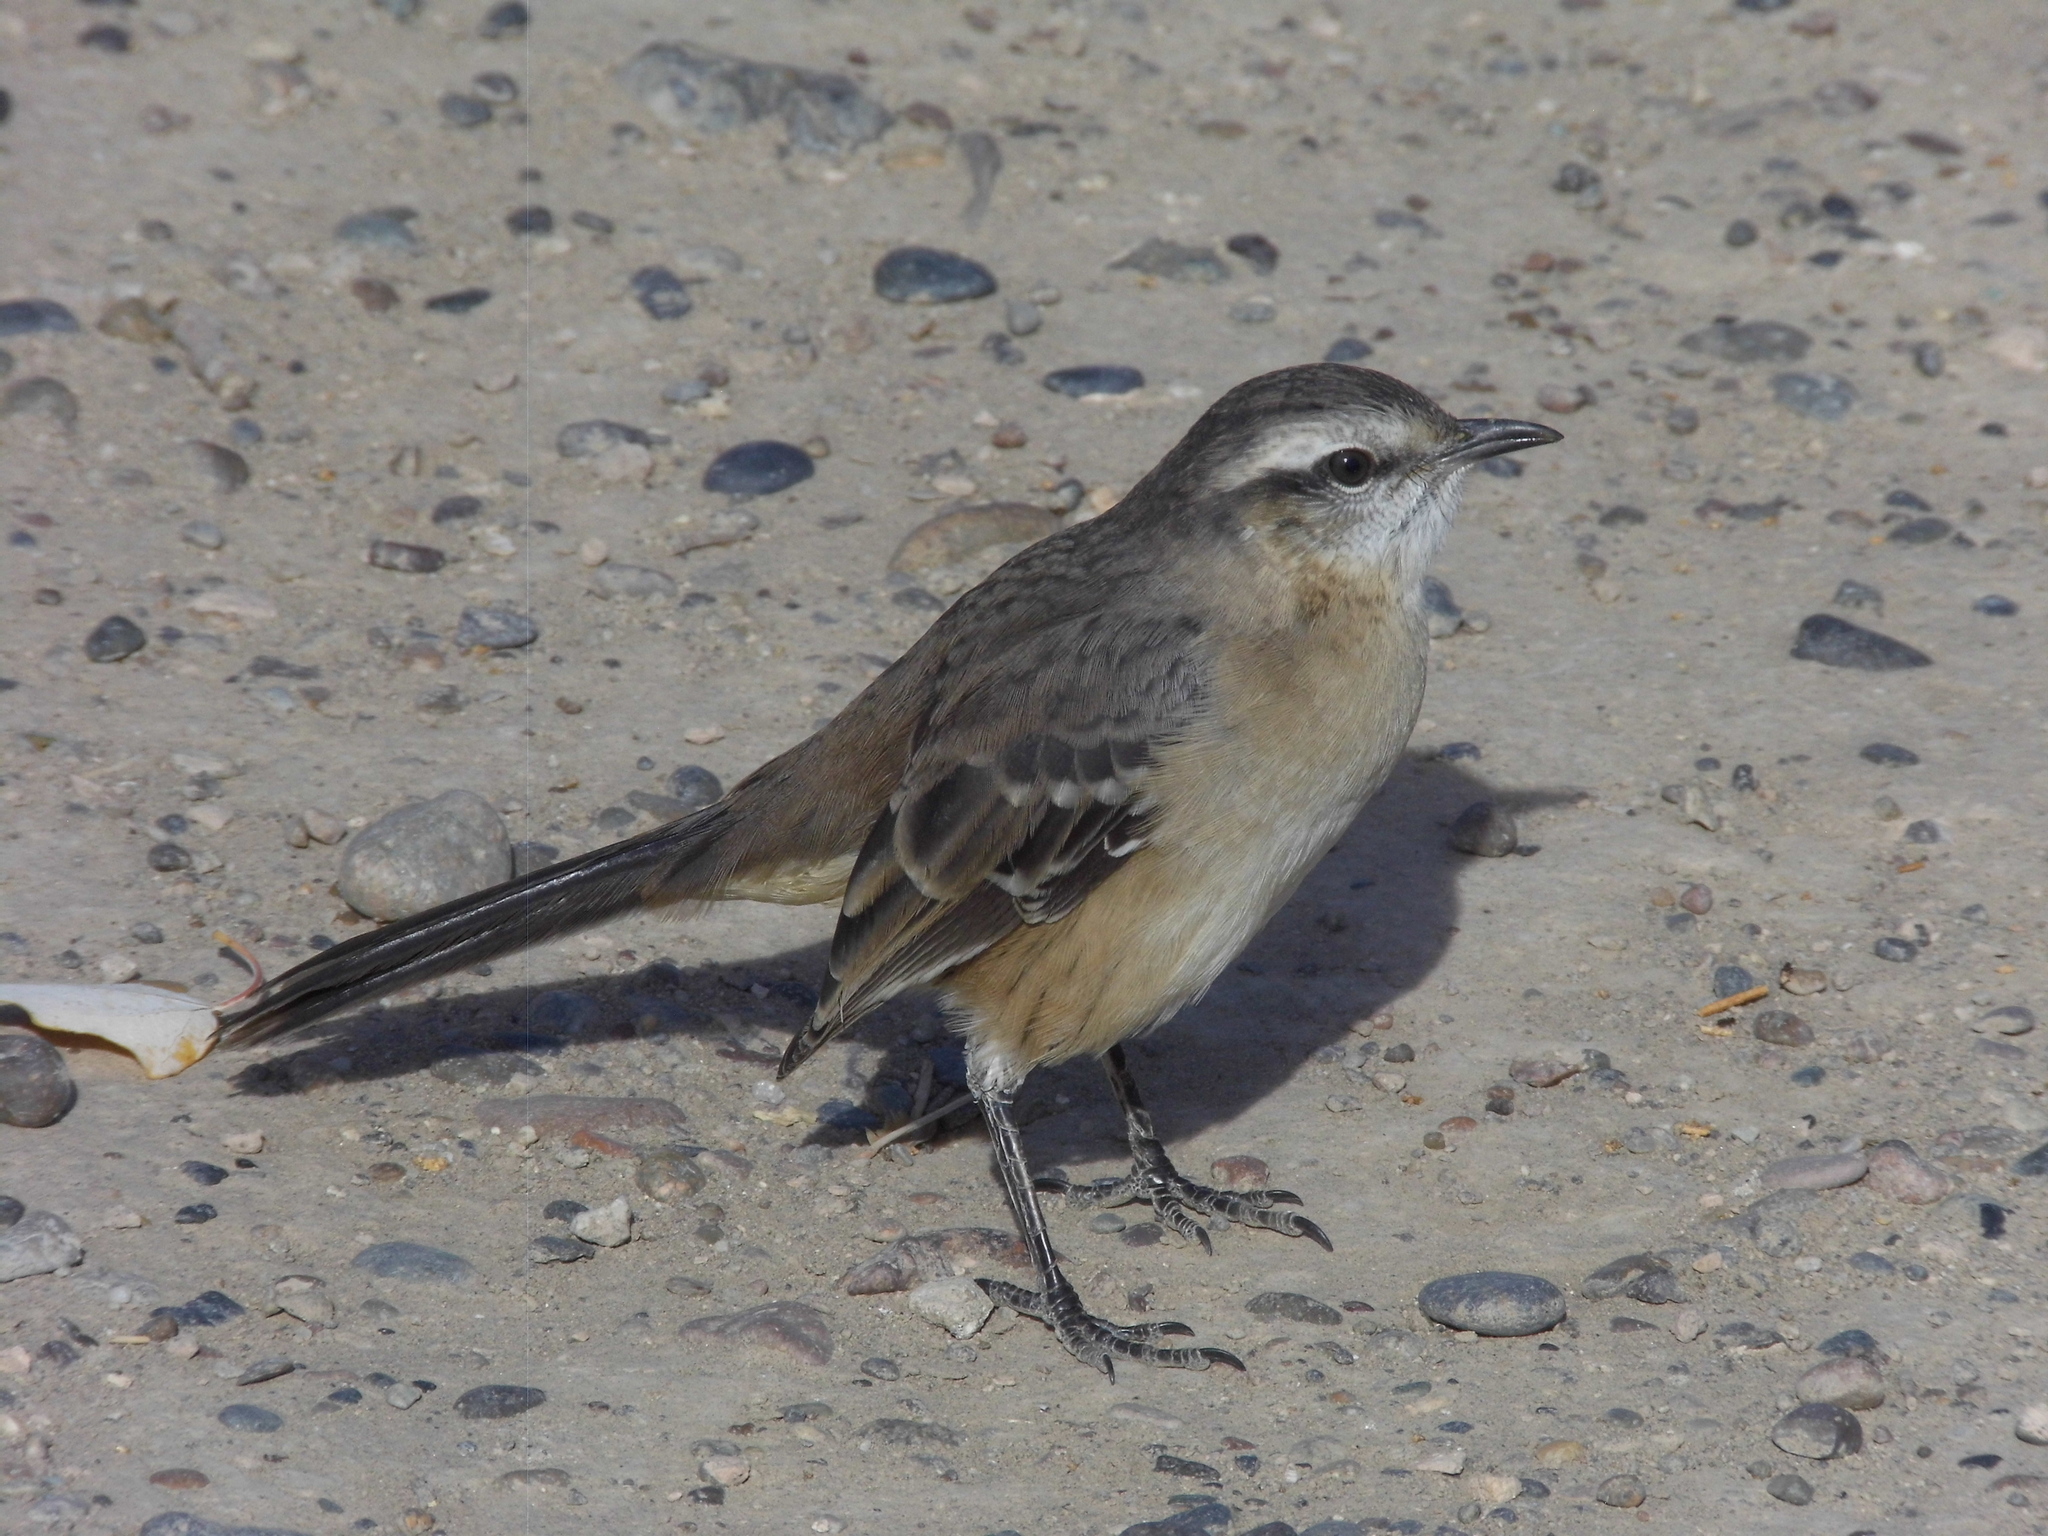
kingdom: Animalia
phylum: Chordata
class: Aves
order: Passeriformes
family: Mimidae
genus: Mimus
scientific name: Mimus saturninus
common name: Chalk-browed mockingbird
